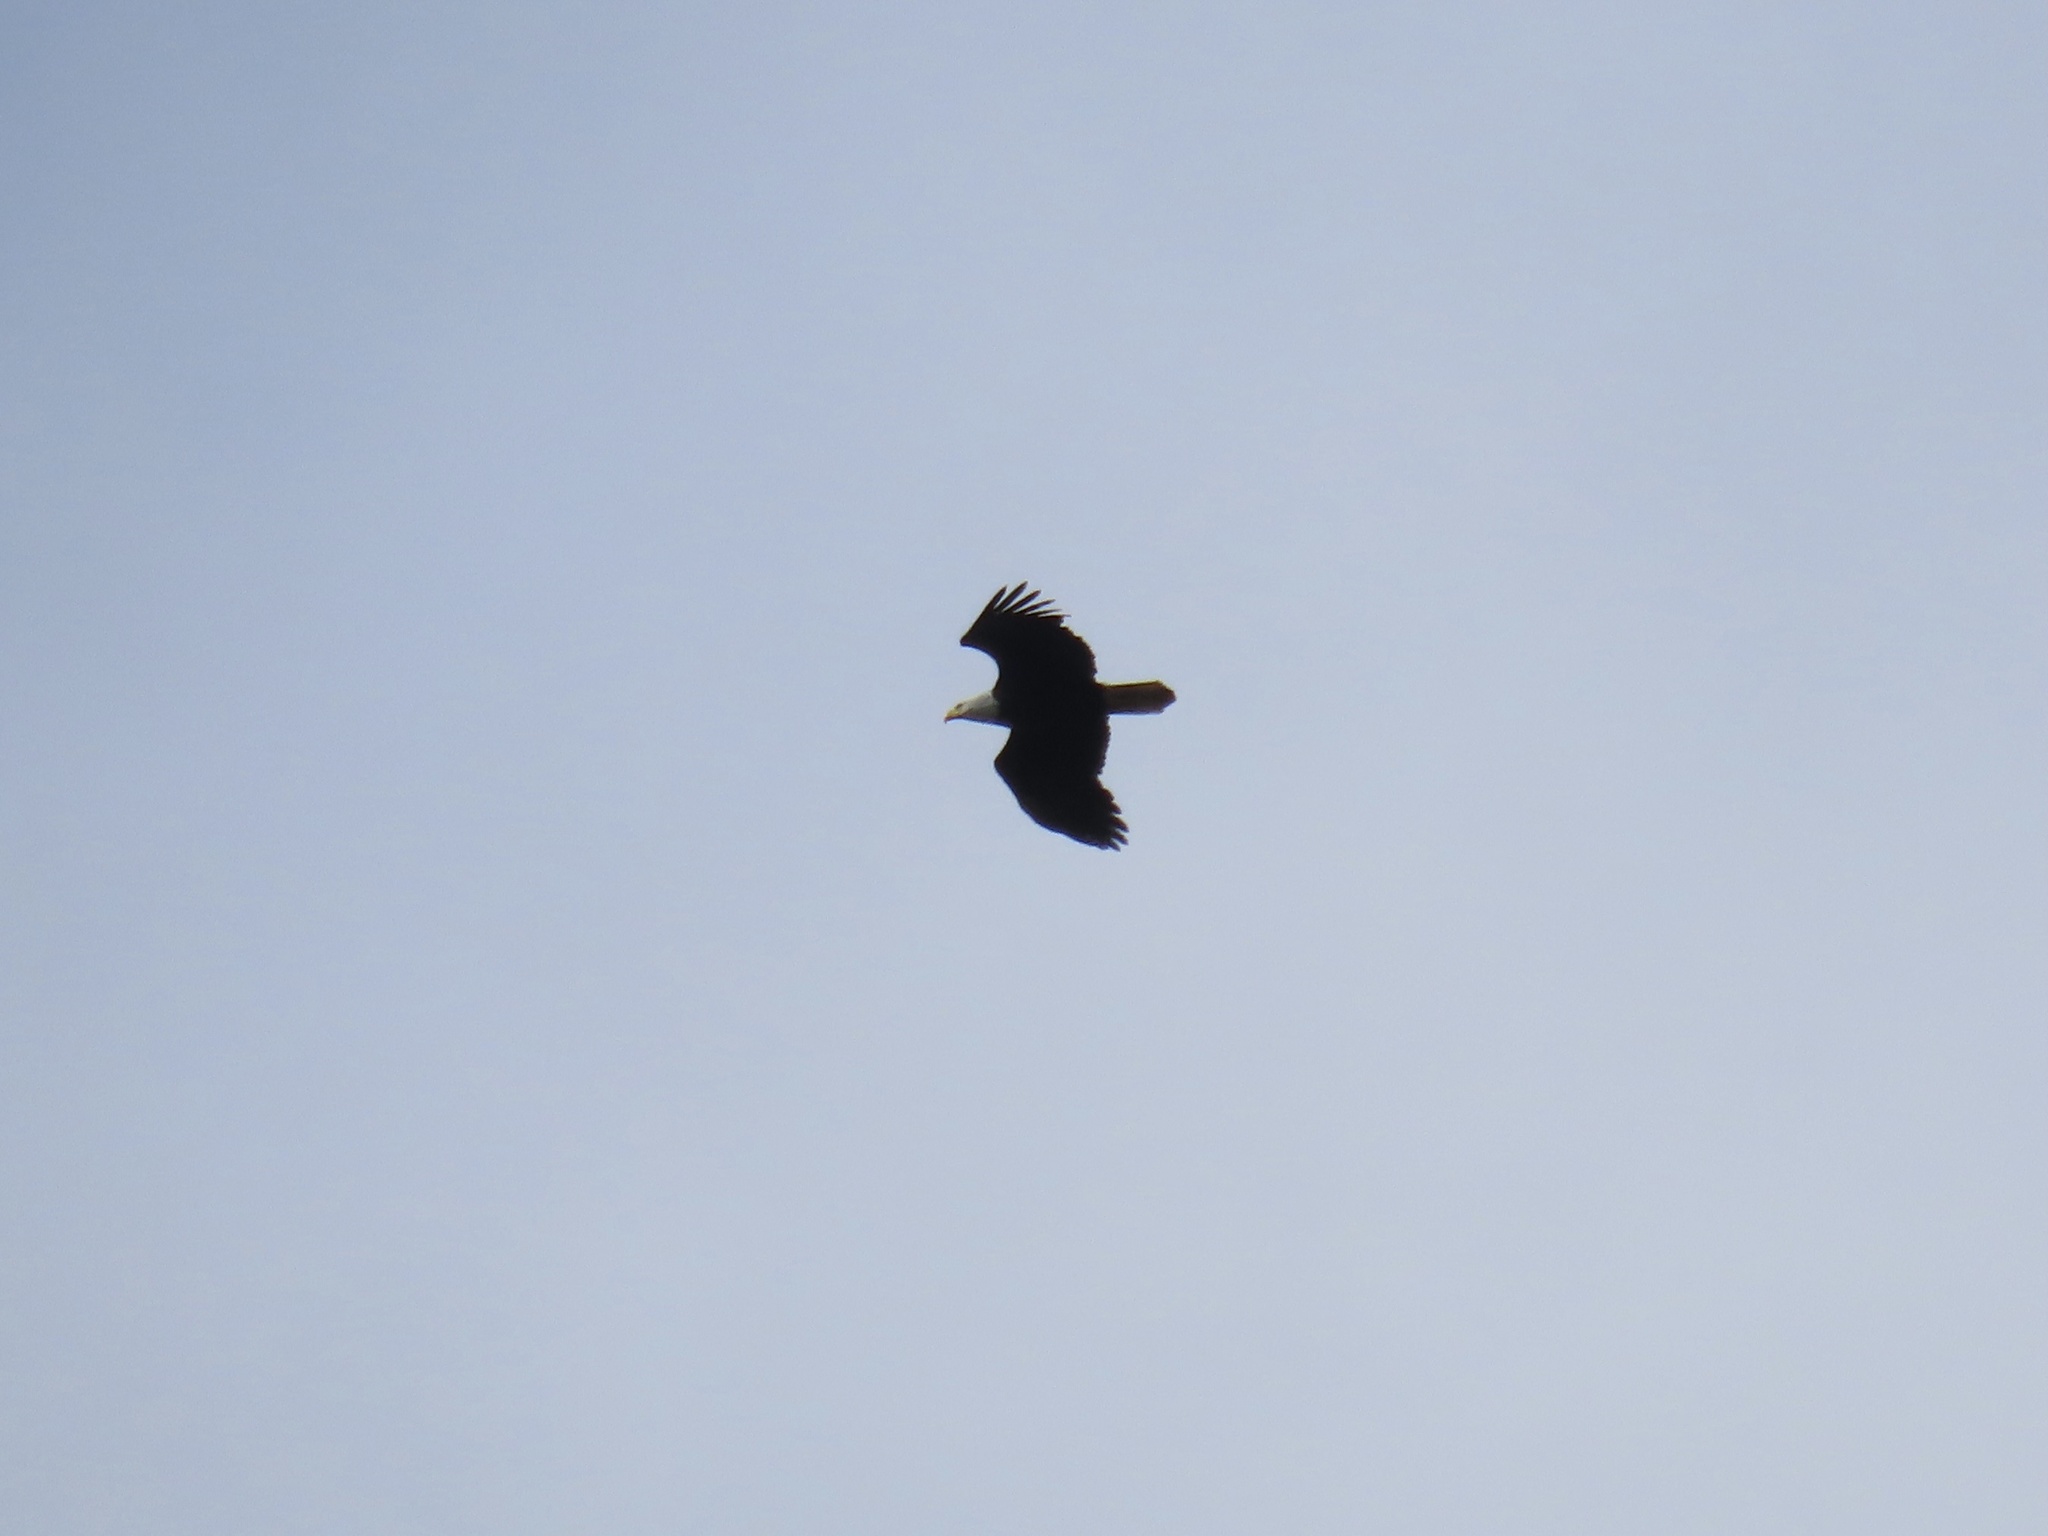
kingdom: Animalia
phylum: Chordata
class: Aves
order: Accipitriformes
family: Accipitridae
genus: Haliaeetus
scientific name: Haliaeetus leucocephalus
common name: Bald eagle
